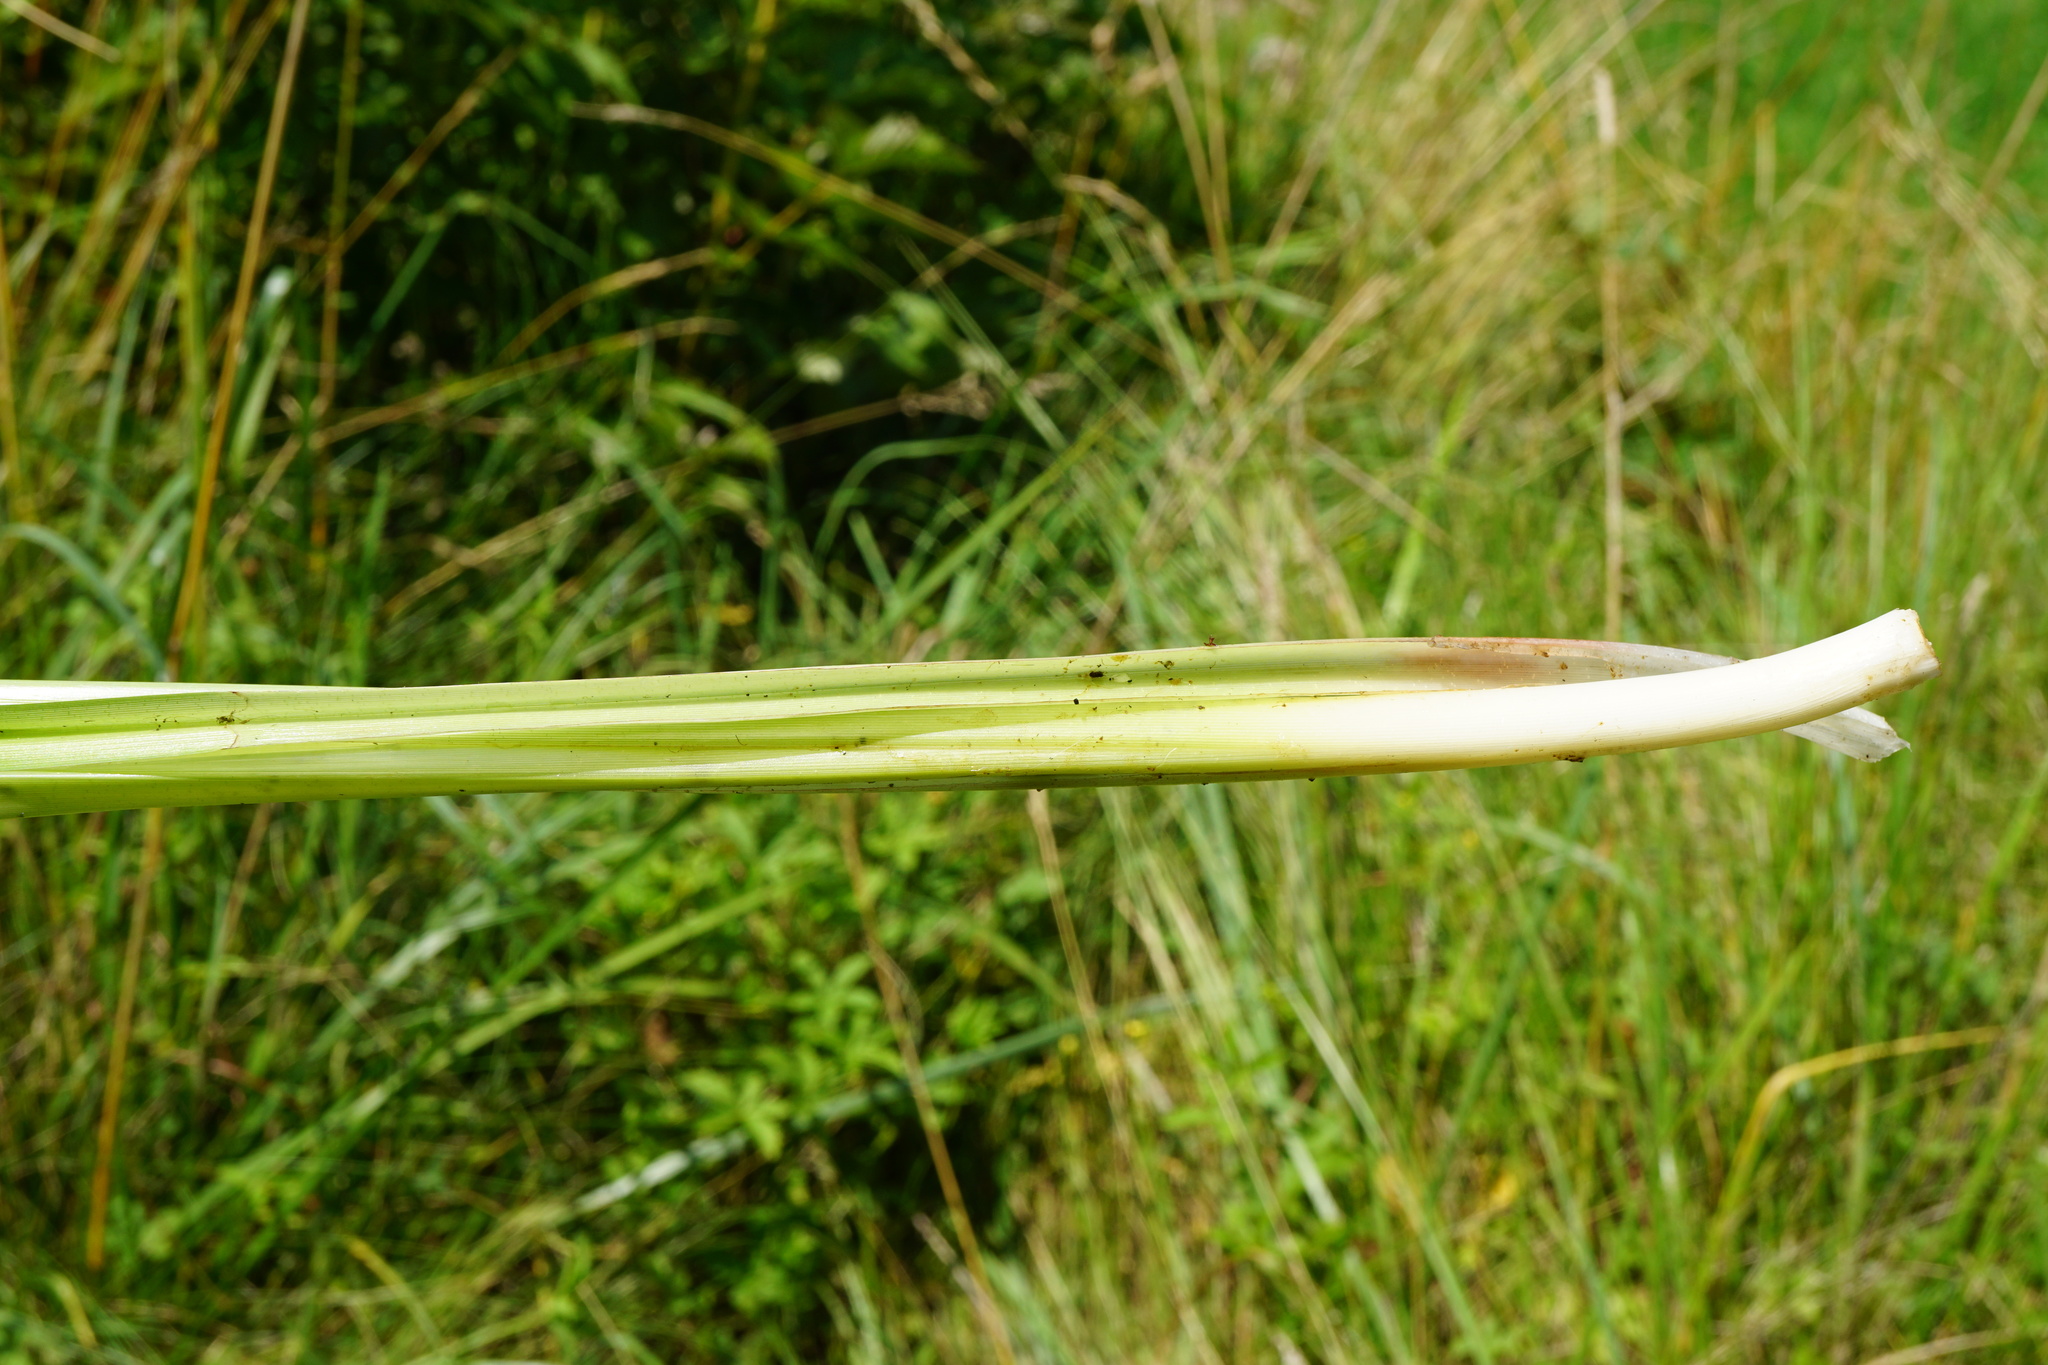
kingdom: Plantae
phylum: Tracheophyta
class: Liliopsida
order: Poales
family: Cyperaceae
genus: Scirpus
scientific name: Scirpus sylvaticus
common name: Wood club-rush
